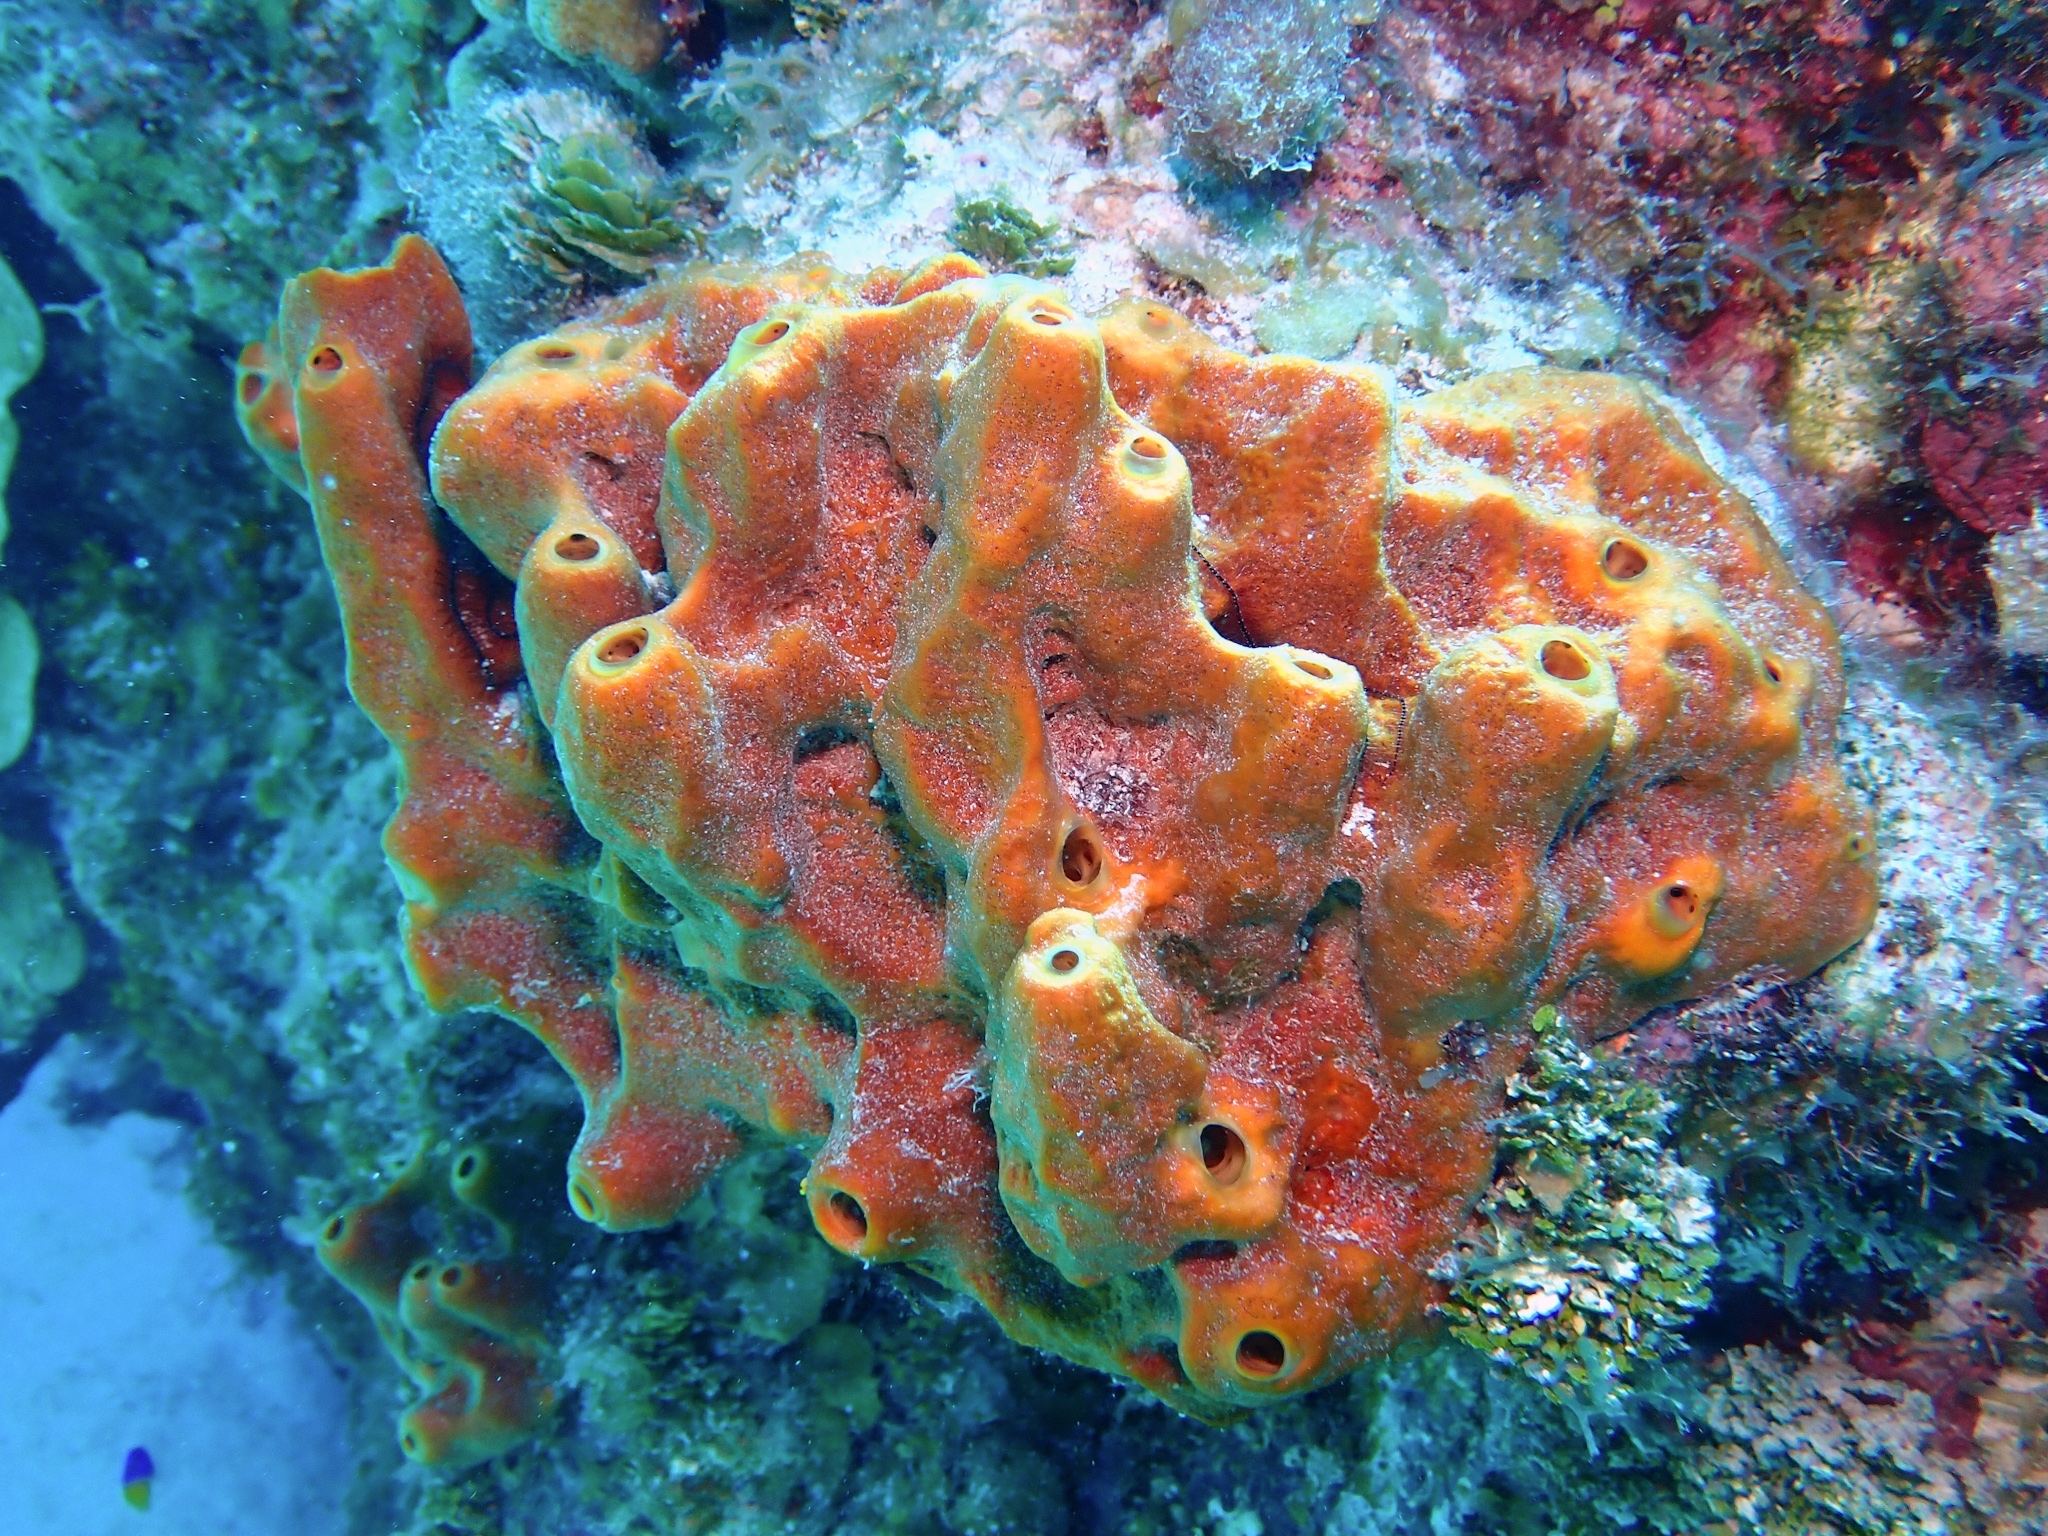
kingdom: Animalia
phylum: Porifera
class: Demospongiae
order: Axinellida
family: Raspailiidae
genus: Ectyoplasia
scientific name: Ectyoplasia ferox
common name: Brown encrusting octopus sponge
